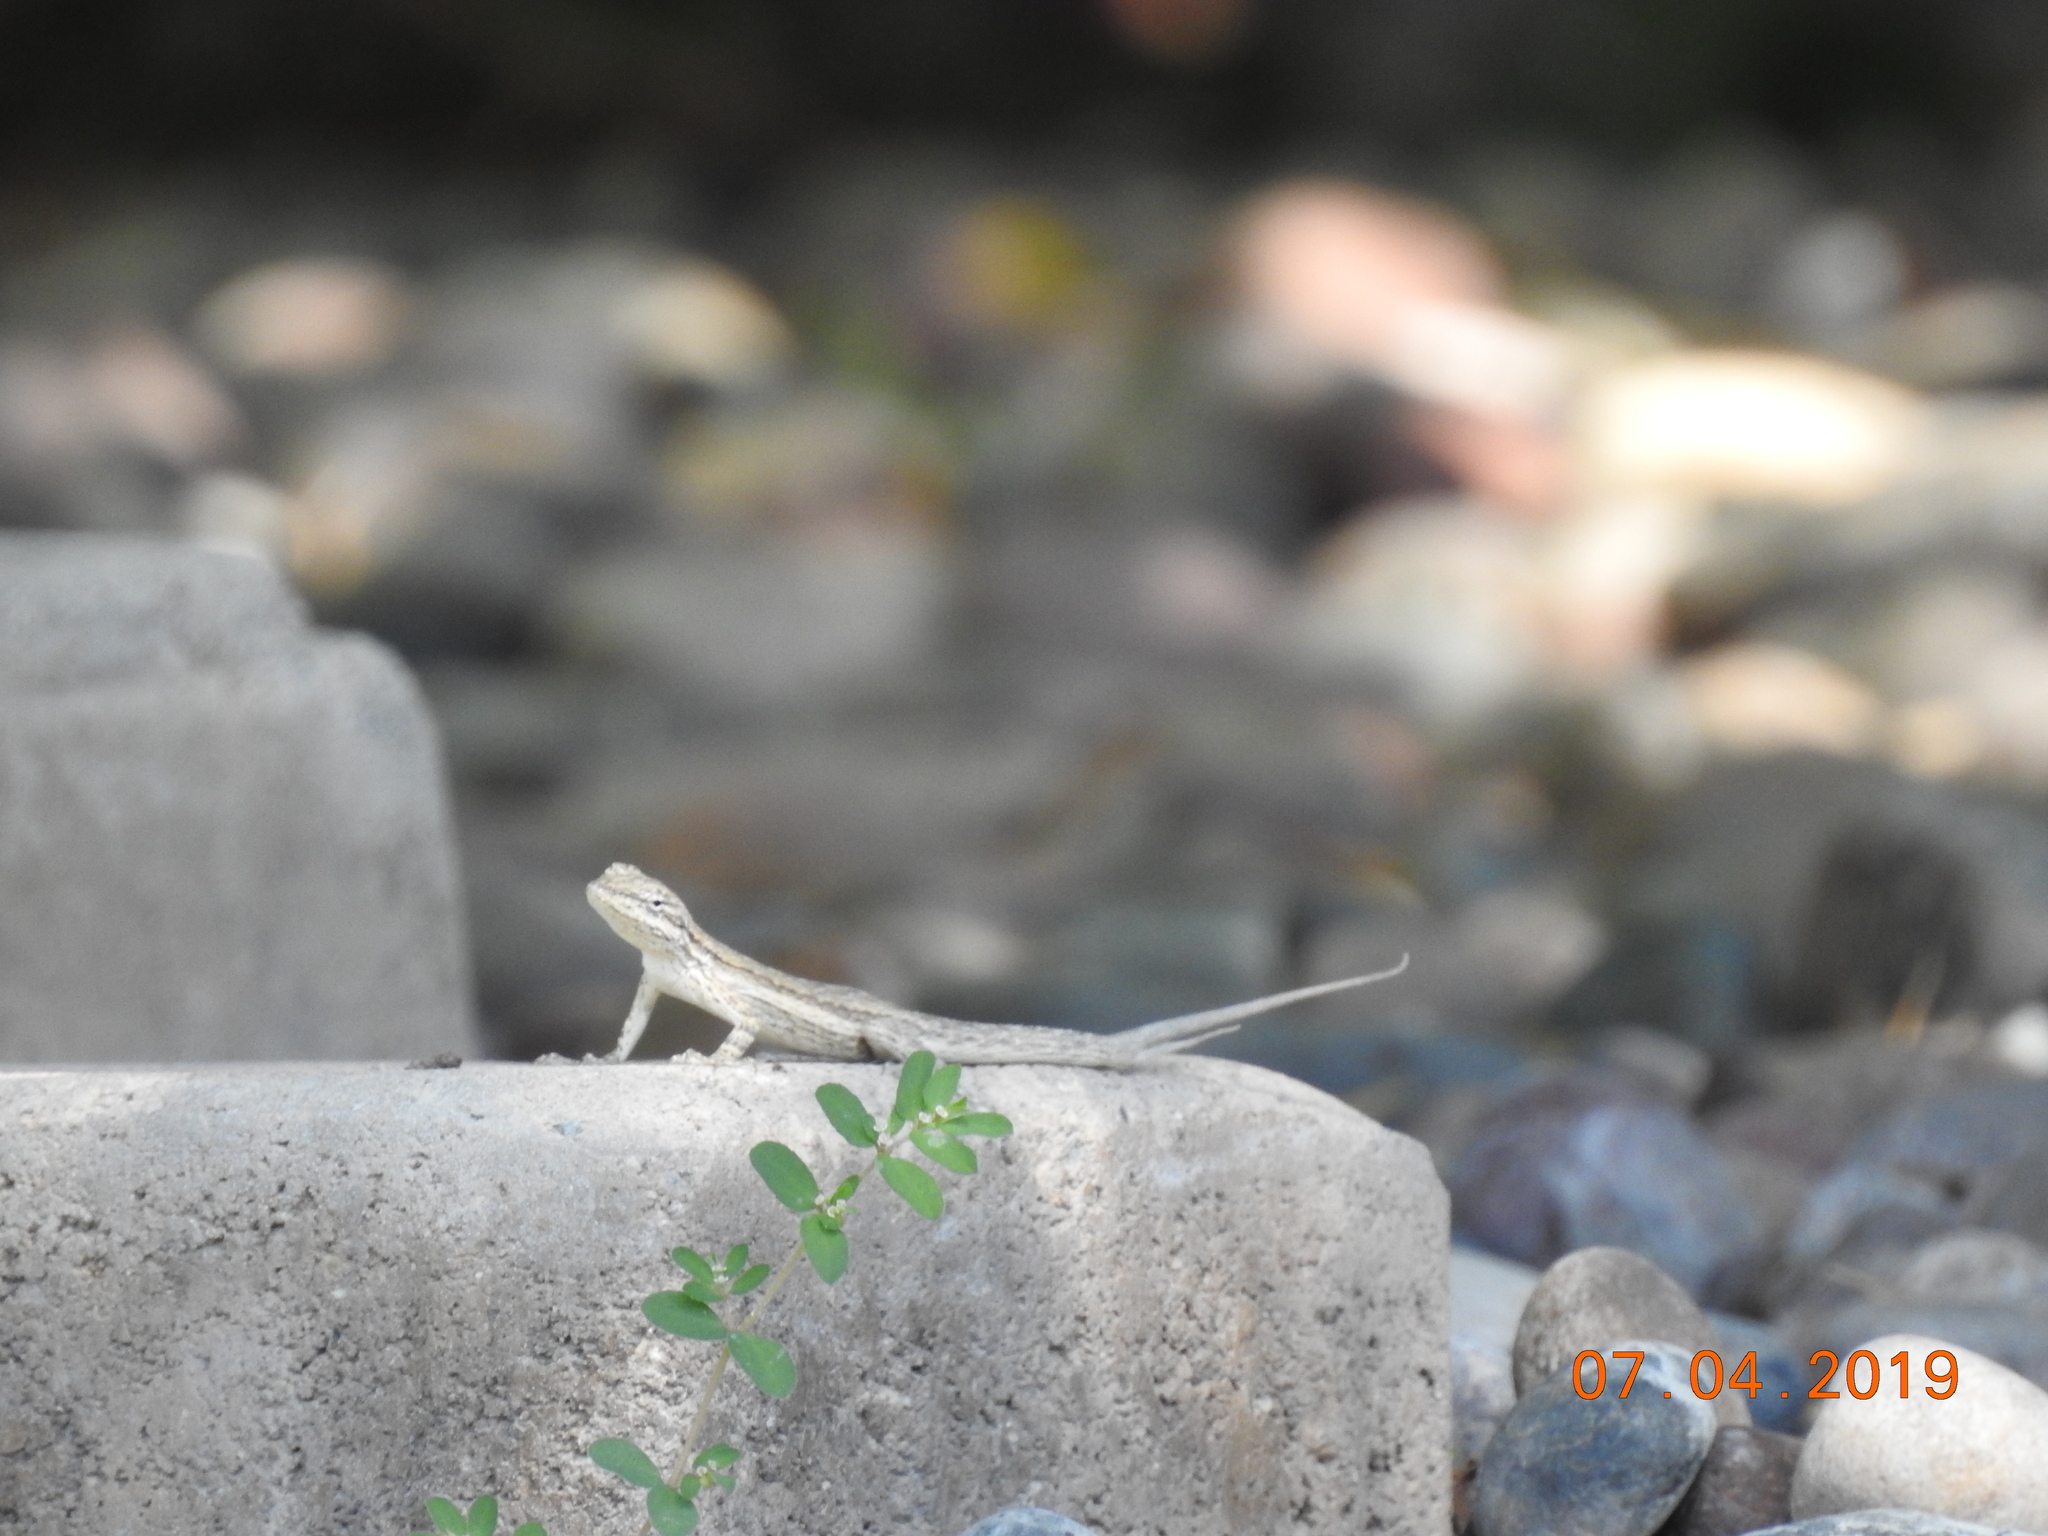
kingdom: Animalia
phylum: Chordata
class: Squamata
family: Phrynosomatidae
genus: Urosaurus
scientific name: Urosaurus graciosus
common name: Long-tailed brush lizard
